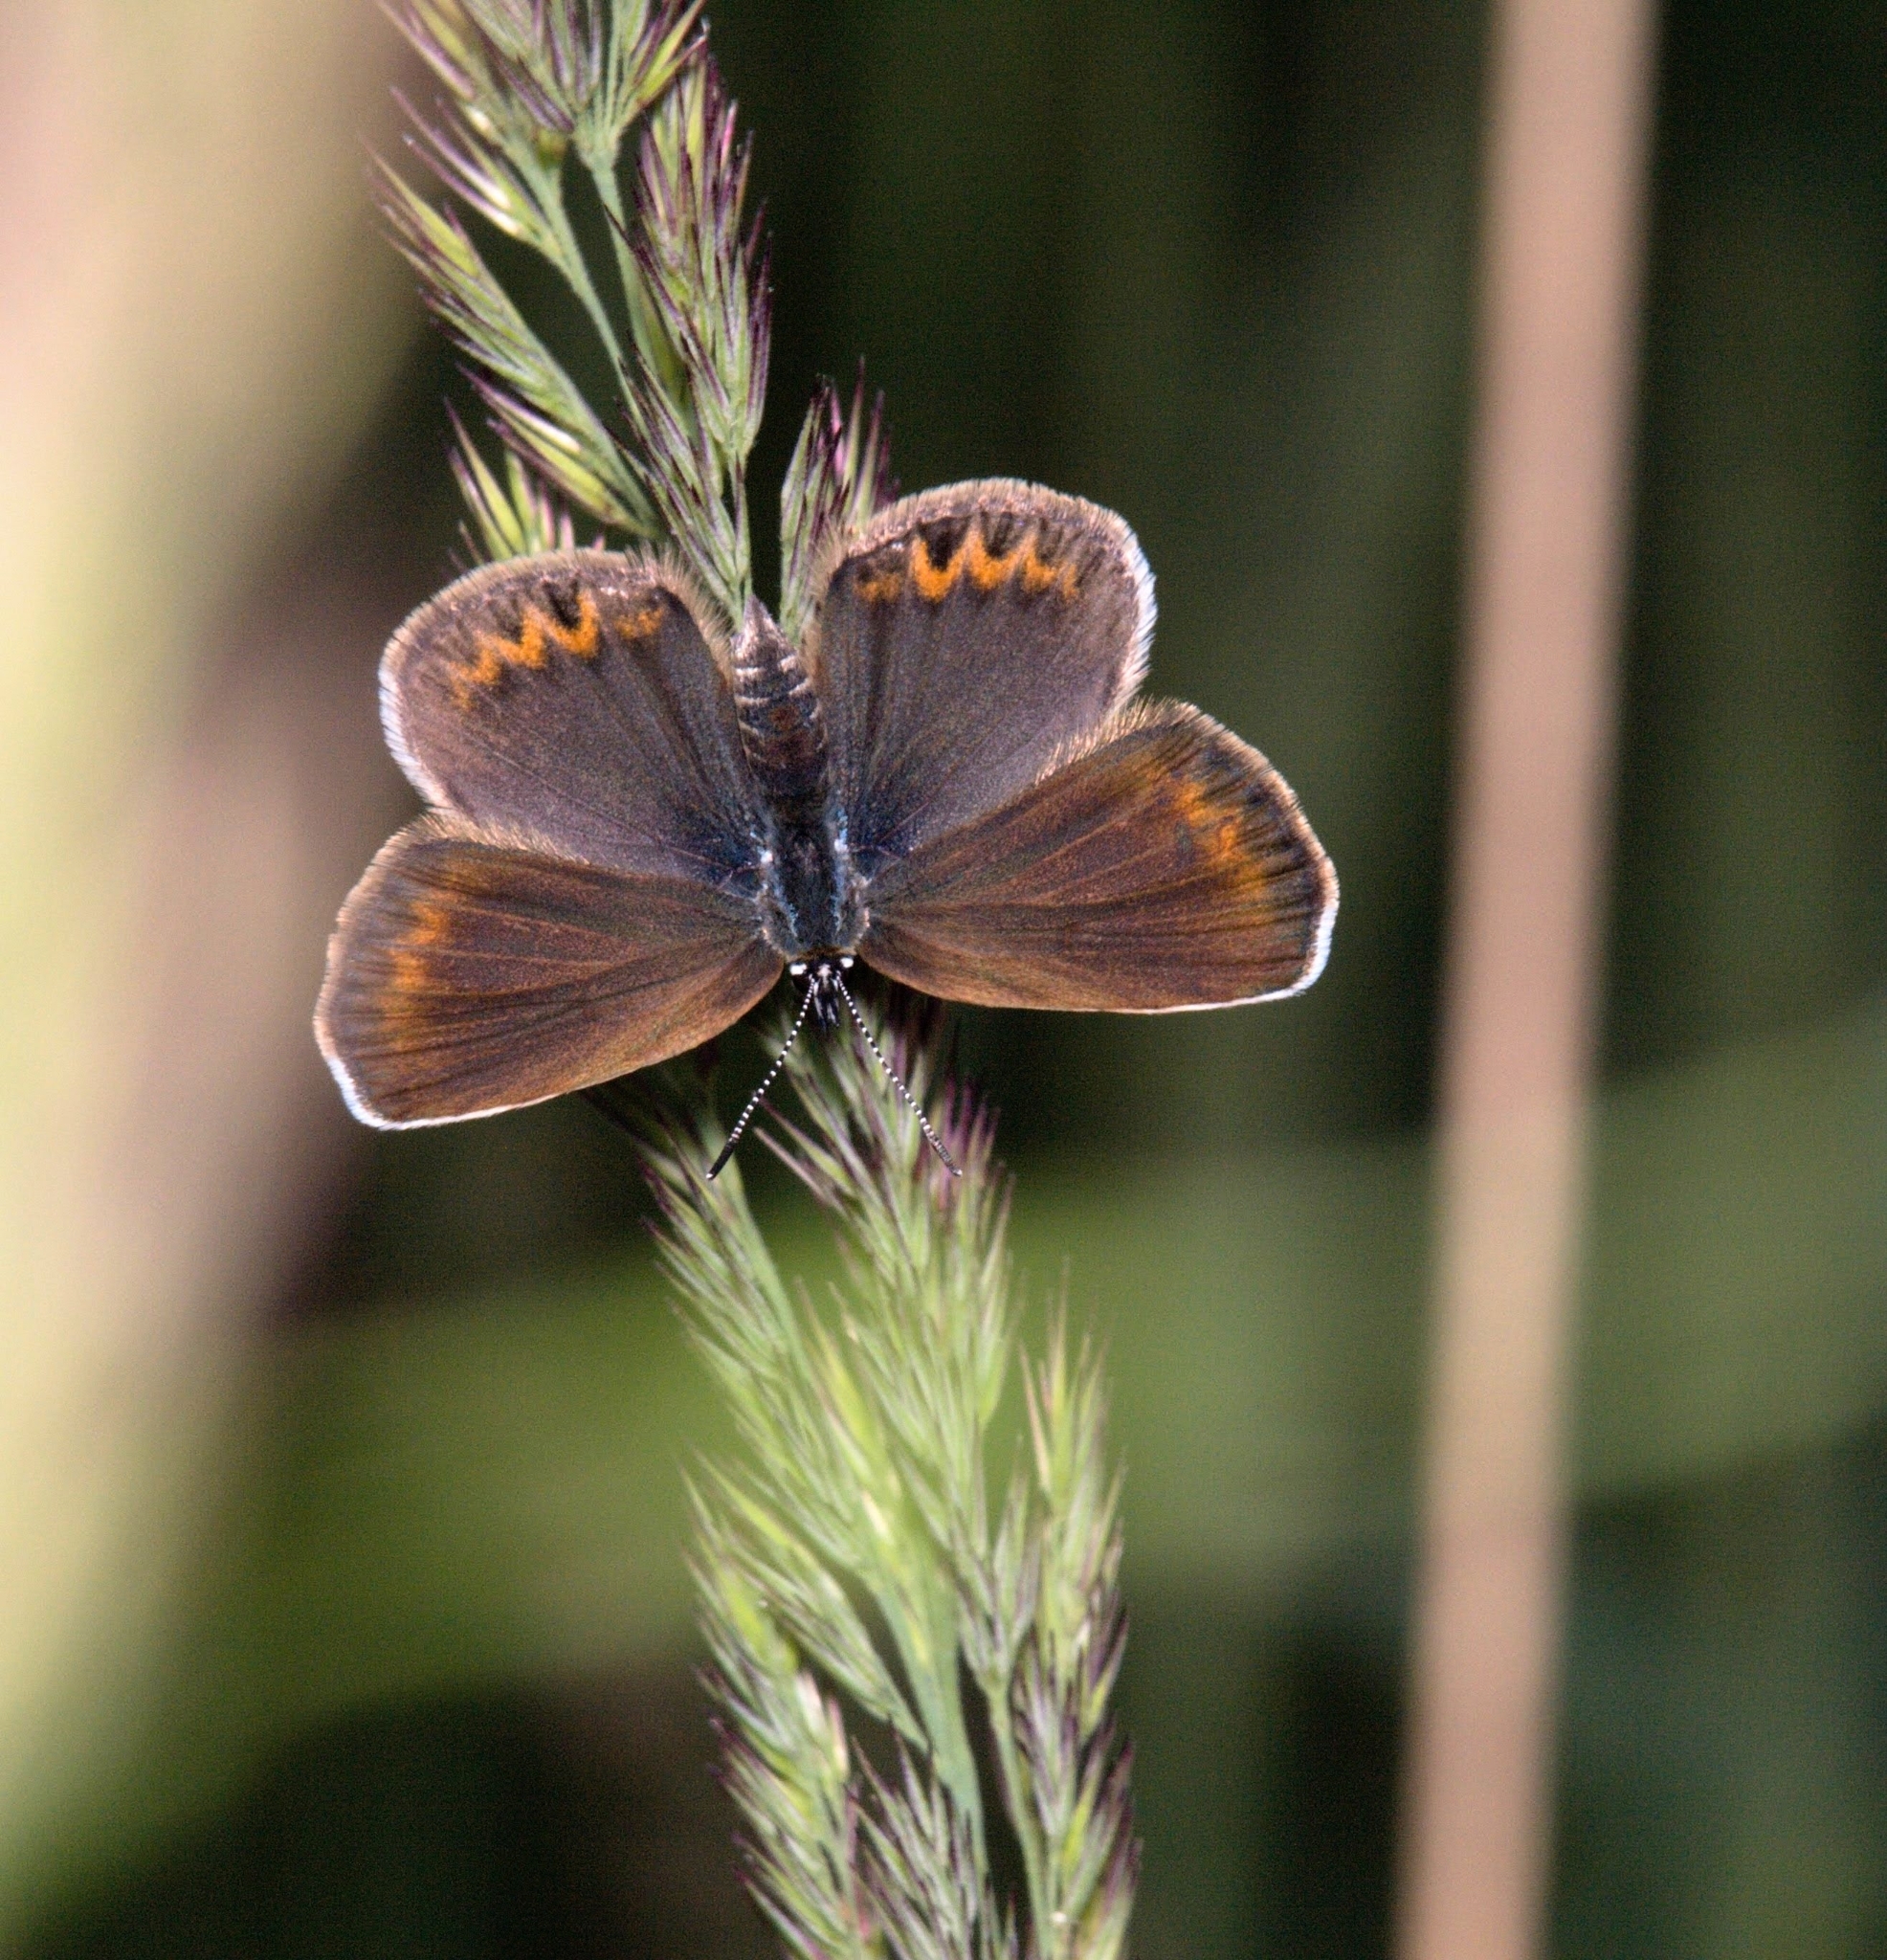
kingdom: Animalia
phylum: Arthropoda
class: Insecta
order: Lepidoptera
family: Lycaenidae
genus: Plebejus
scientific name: Plebejus argus
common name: Silver-studded blue
